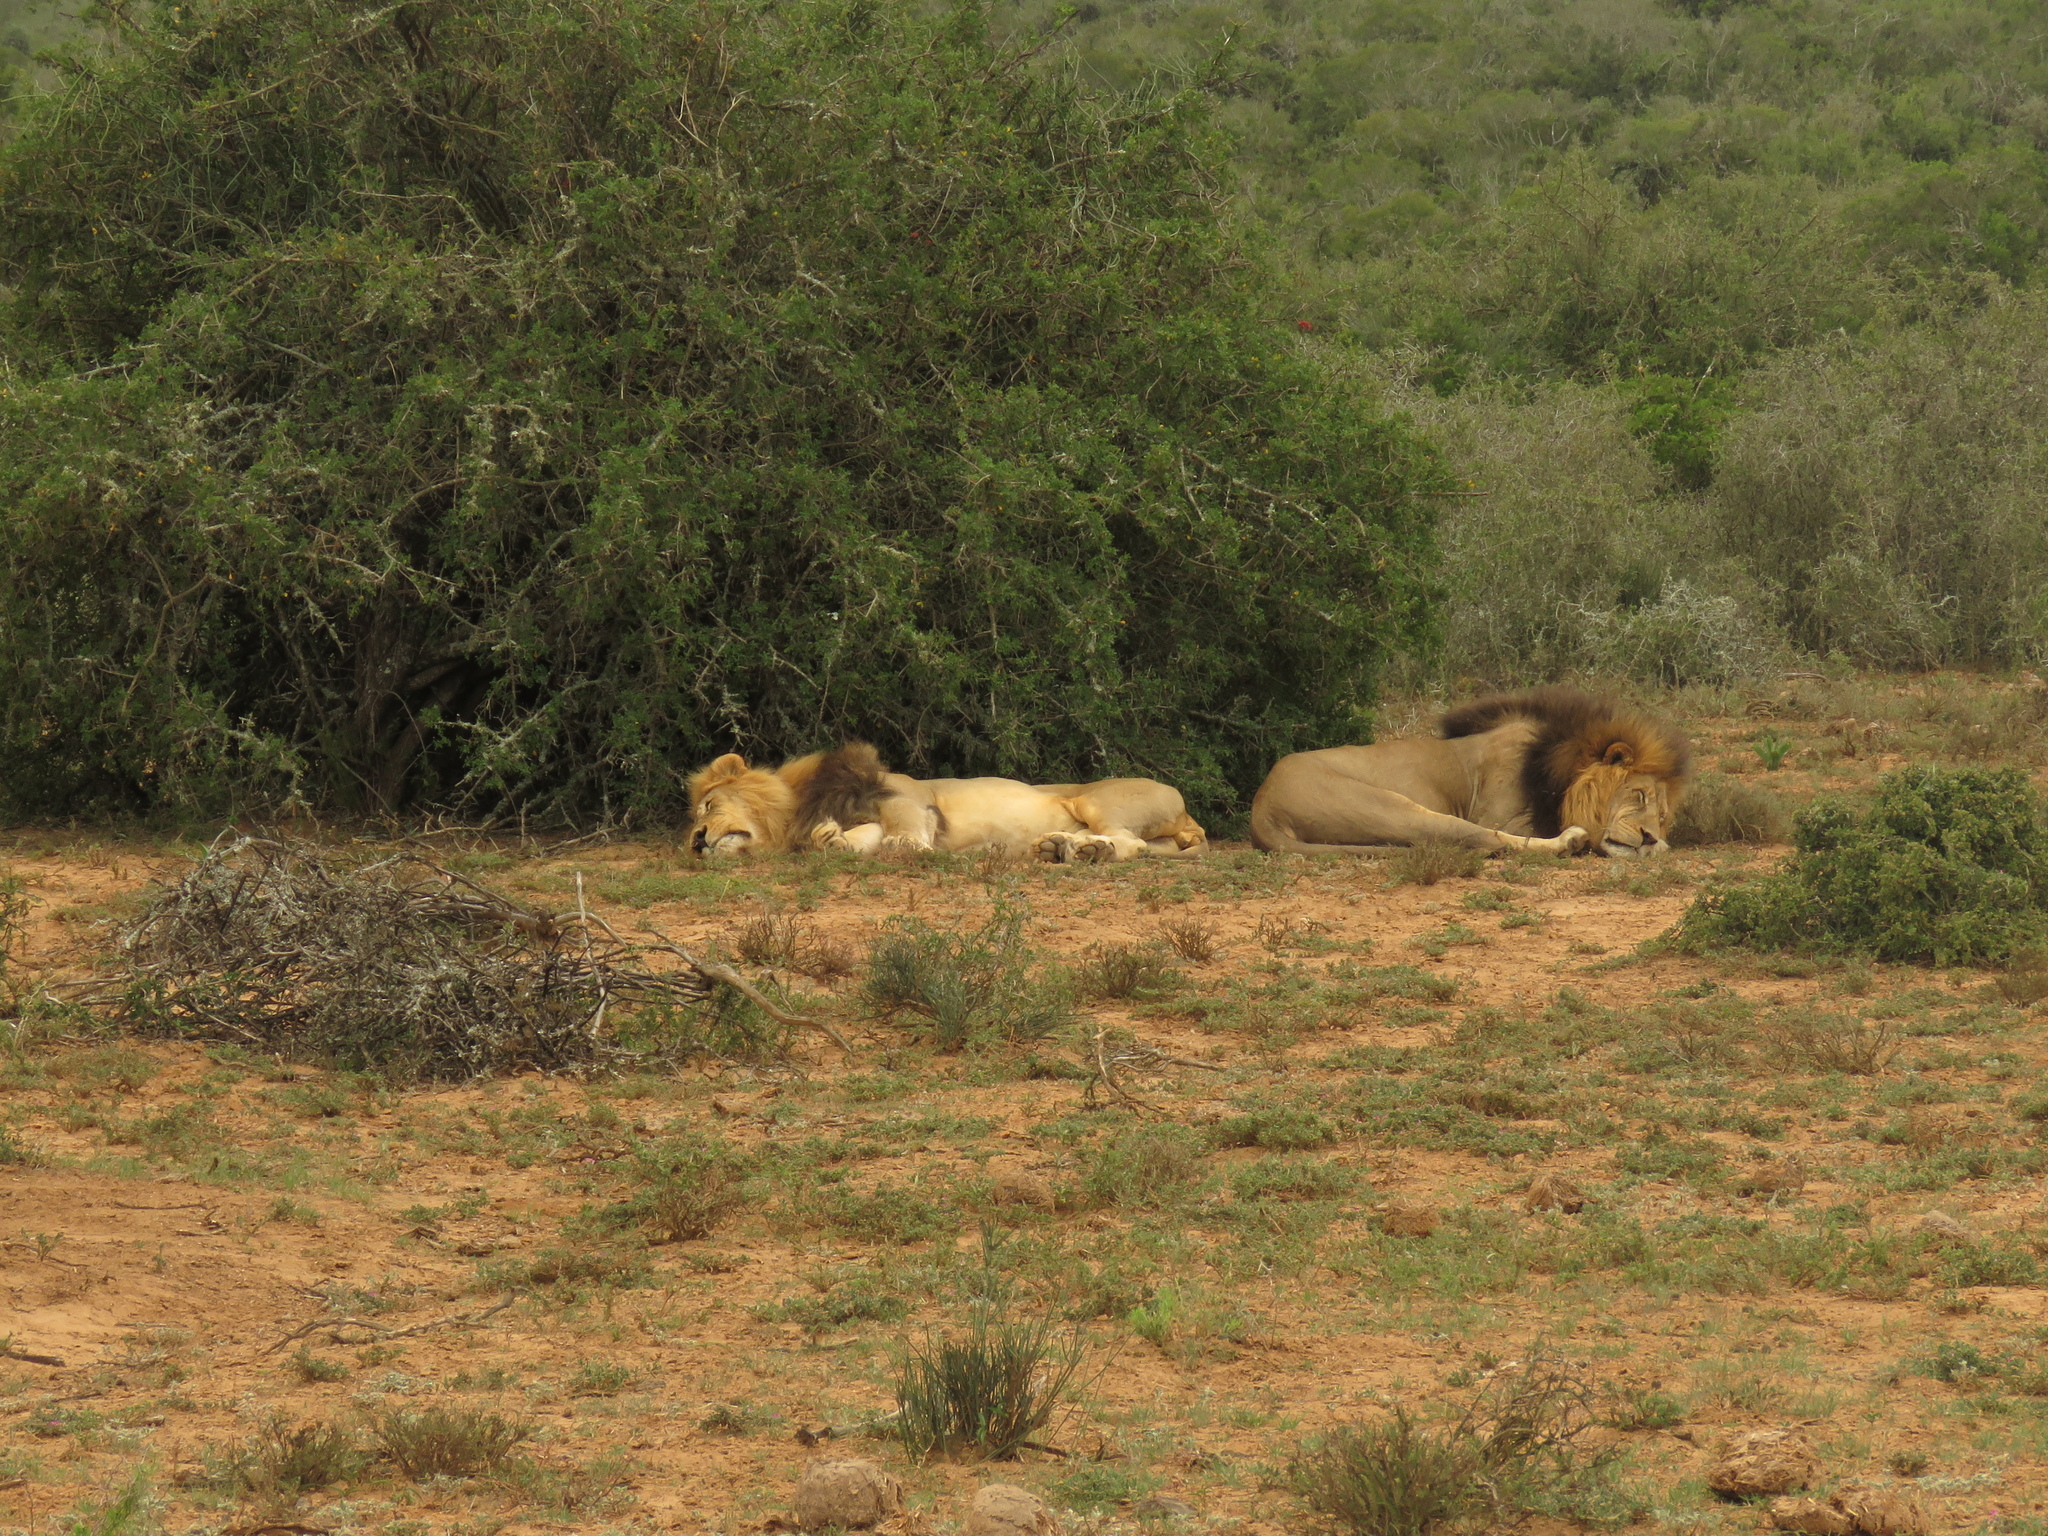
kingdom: Animalia
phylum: Chordata
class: Mammalia
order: Carnivora
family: Felidae
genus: Panthera
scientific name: Panthera leo
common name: Lion
